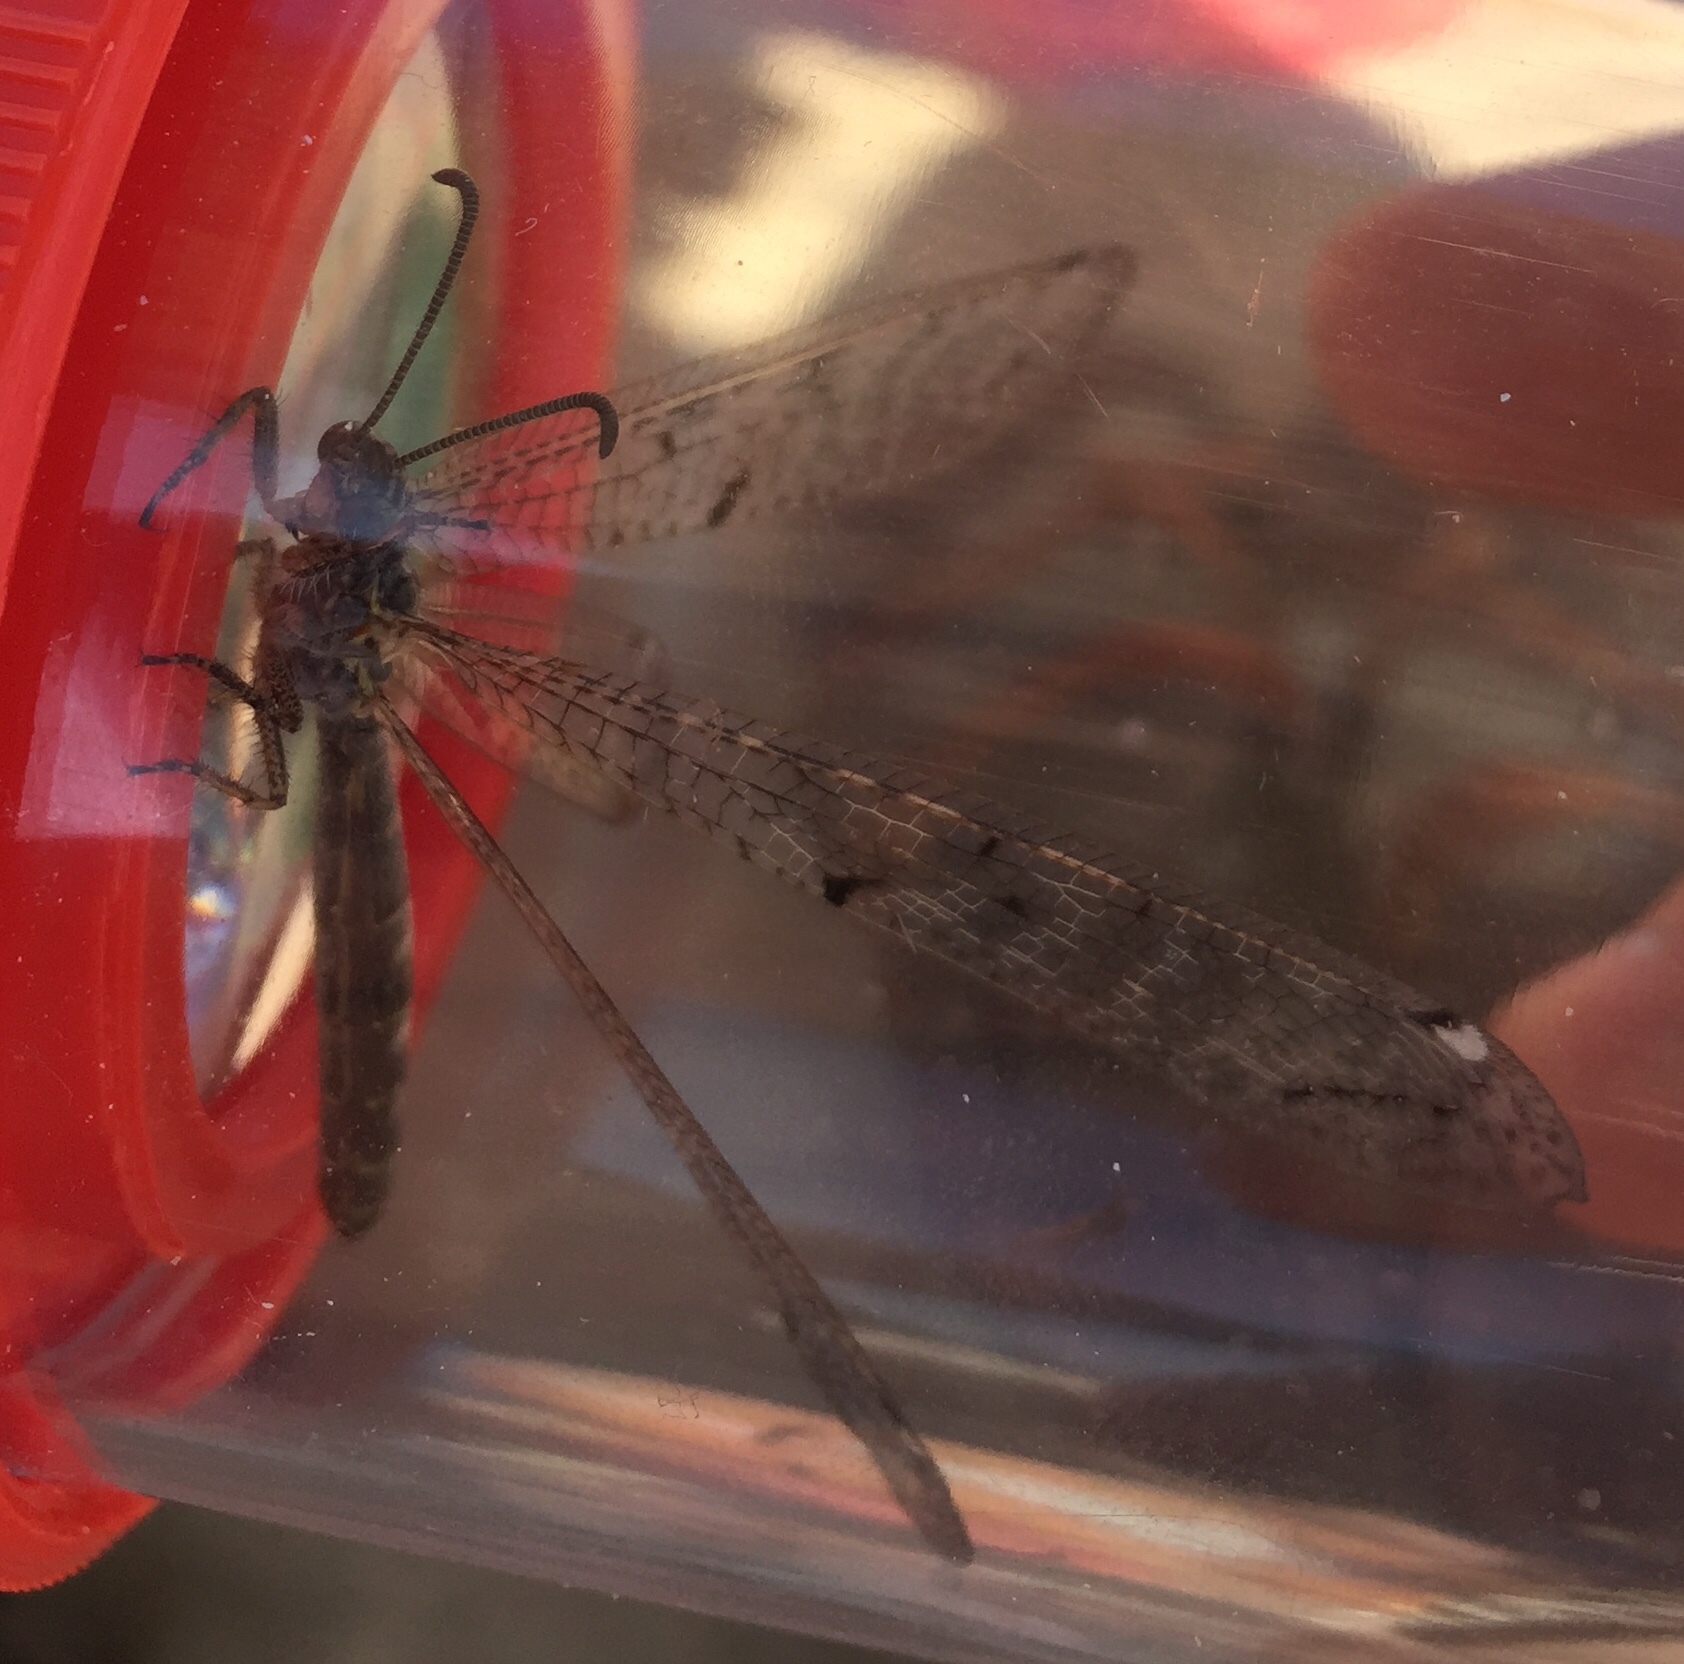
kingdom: Animalia
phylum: Arthropoda
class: Insecta
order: Neuroptera
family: Myrmeleontidae
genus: Neuroleon
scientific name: Neuroleon egenus
